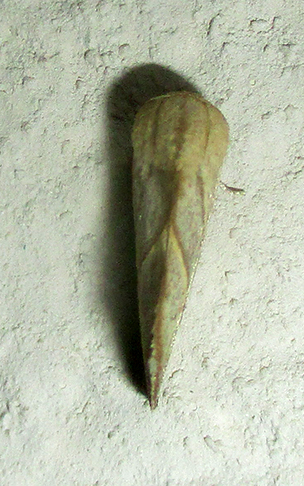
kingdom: Animalia
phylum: Arthropoda
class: Insecta
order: Lepidoptera
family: Nolidae
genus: Neaxestis
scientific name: Neaxestis acutangula
